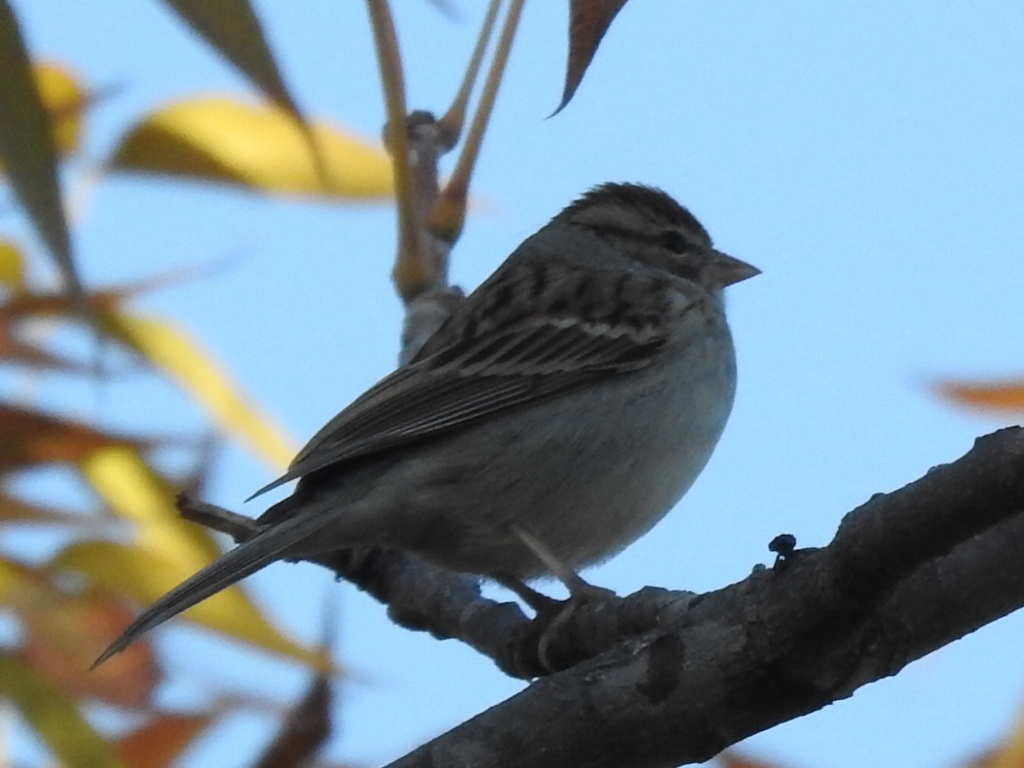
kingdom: Animalia
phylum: Chordata
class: Aves
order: Passeriformes
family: Passerellidae
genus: Spizella
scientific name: Spizella passerina
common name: Chipping sparrow
